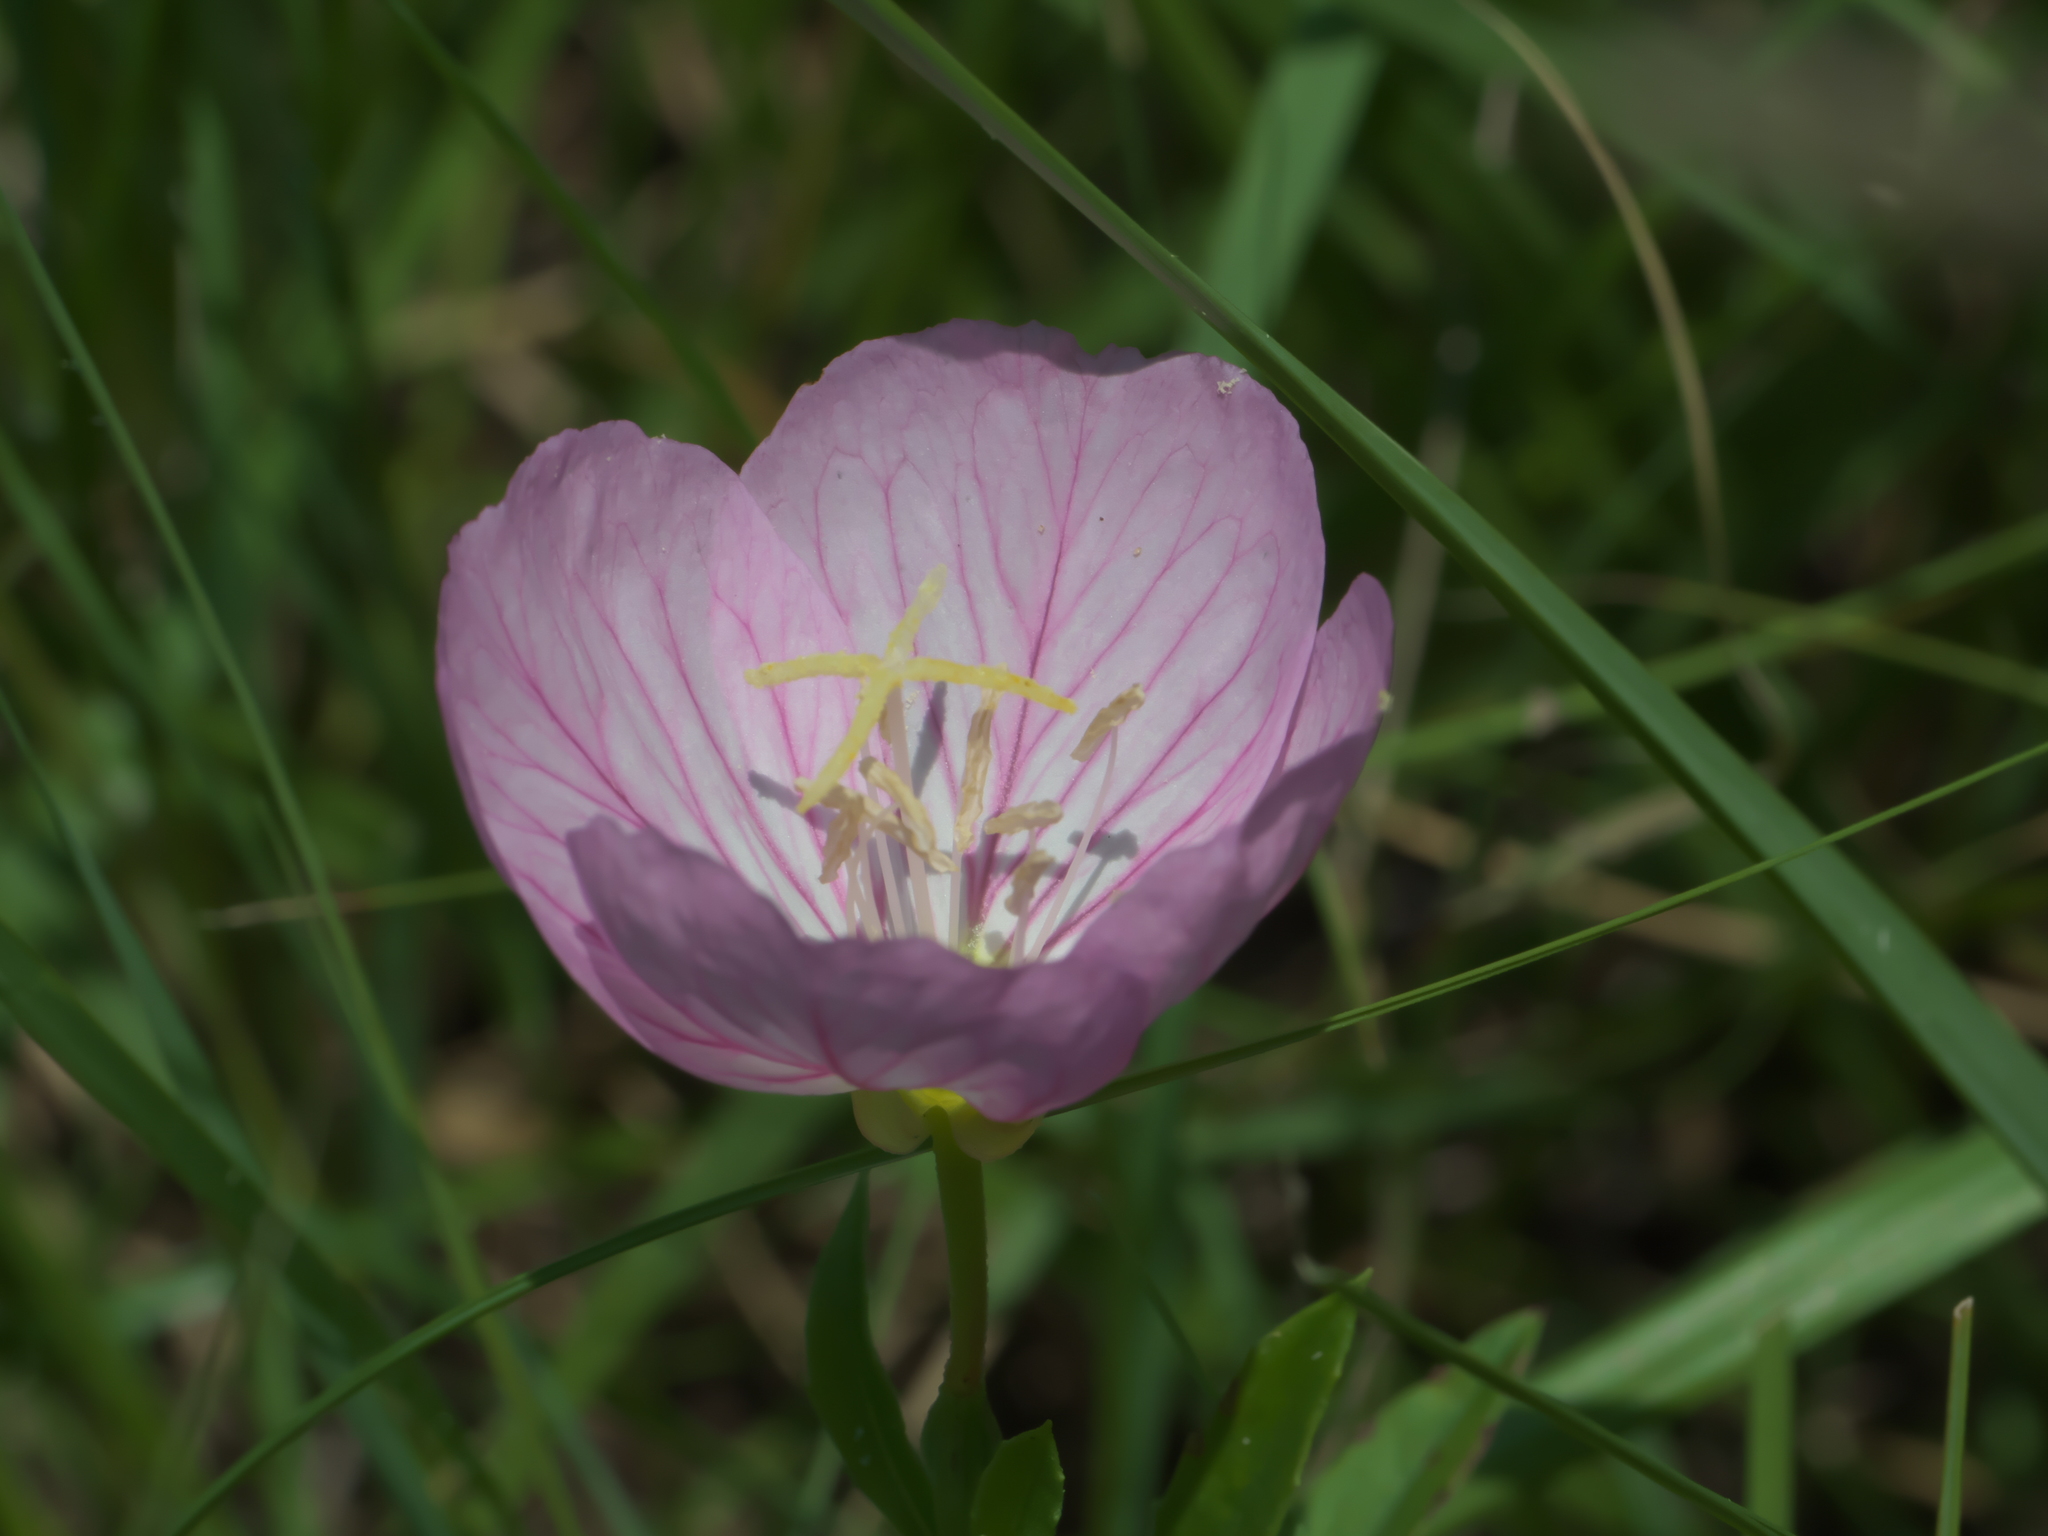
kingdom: Plantae
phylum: Tracheophyta
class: Magnoliopsida
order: Myrtales
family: Onagraceae
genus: Oenothera
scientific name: Oenothera speciosa
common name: White evening-primrose
